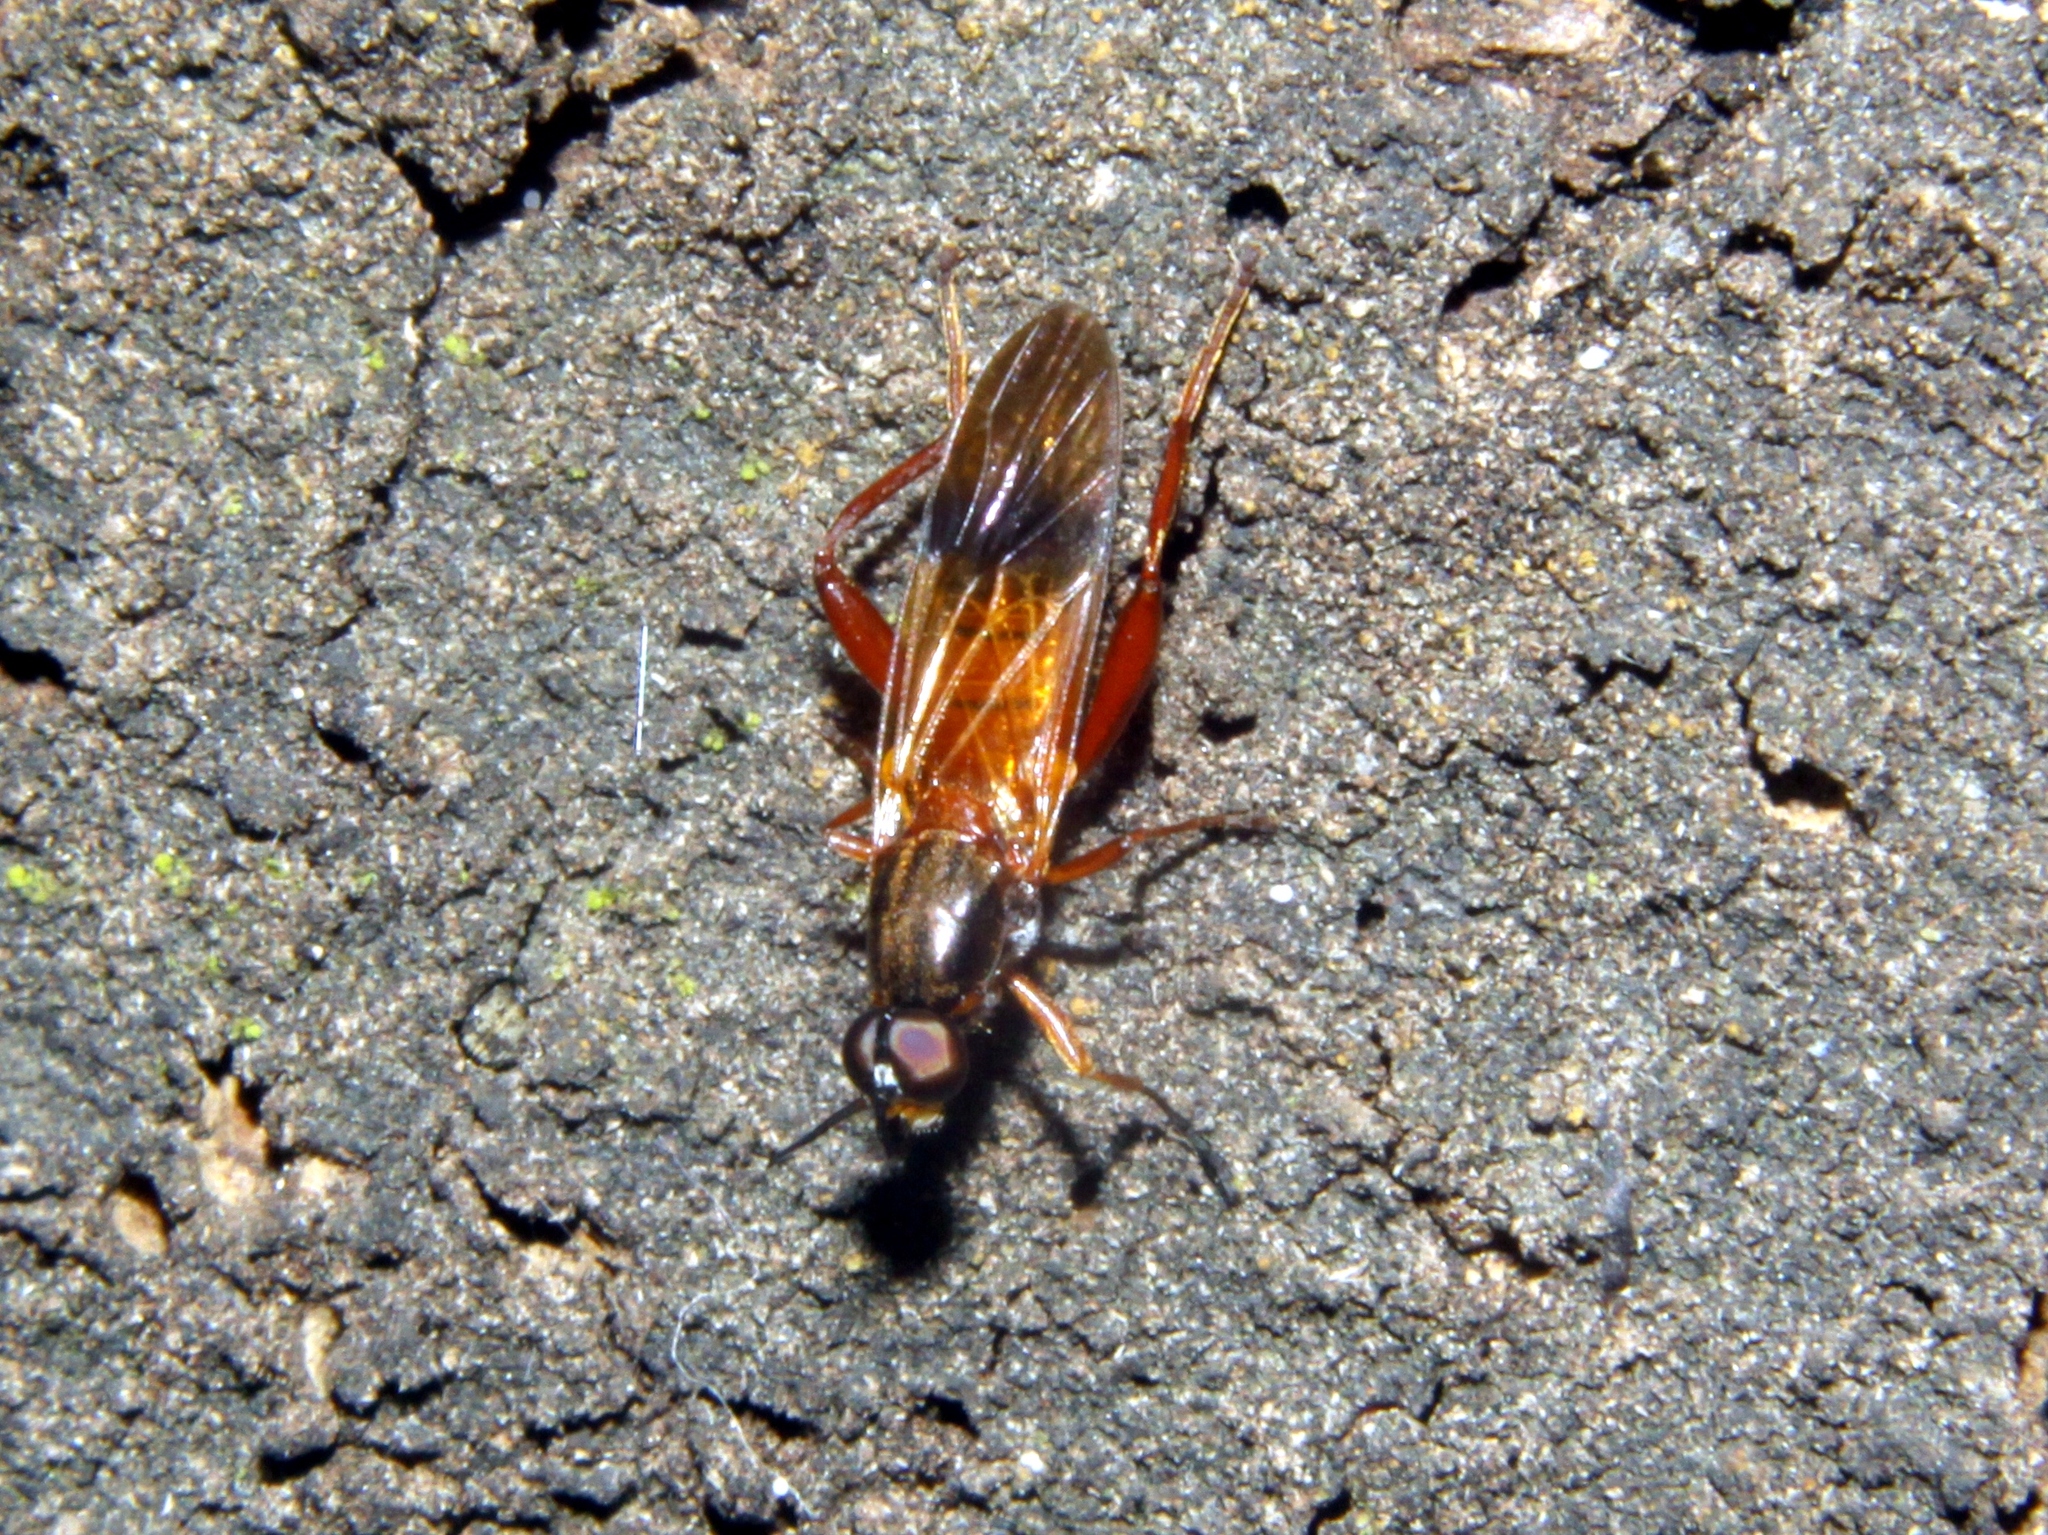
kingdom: Animalia
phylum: Arthropoda
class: Insecta
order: Diptera
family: Stratiomyidae
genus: Benhamyia
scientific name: Benhamyia apicalis
